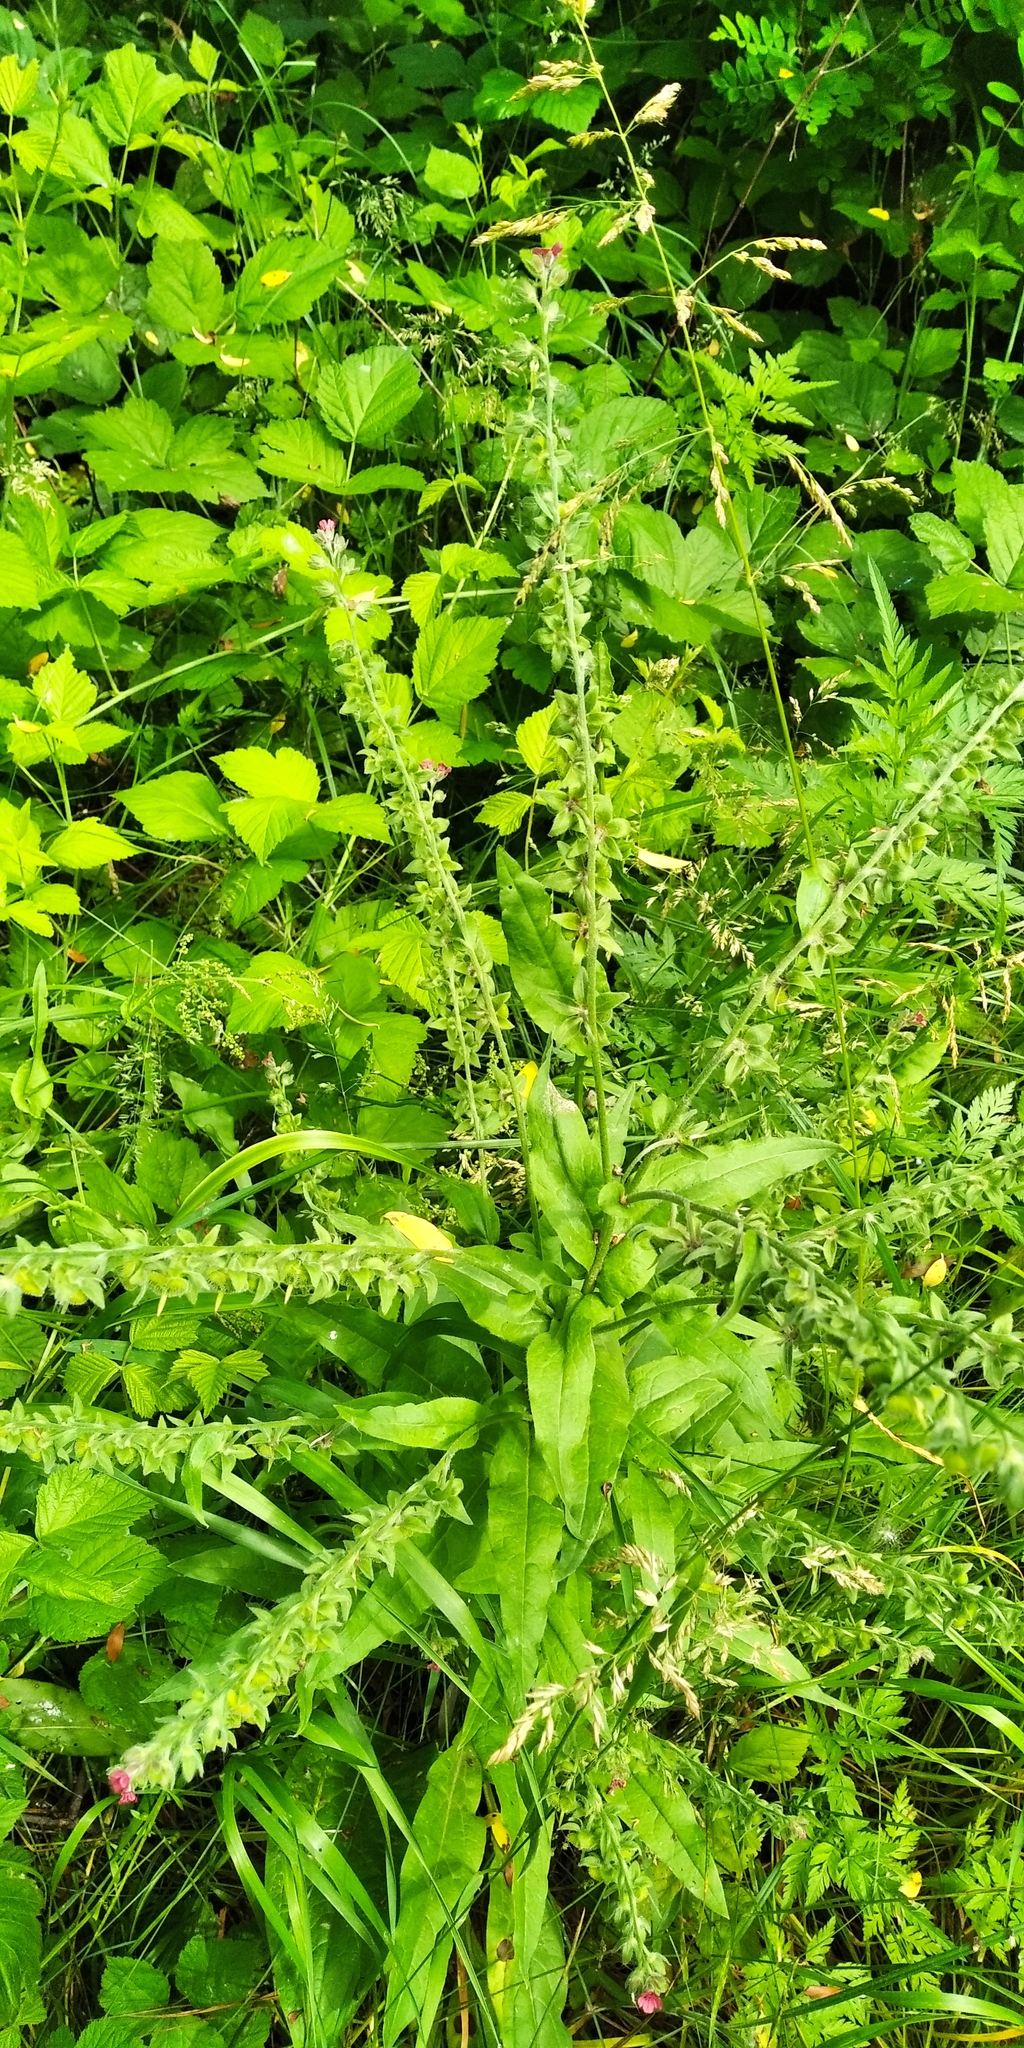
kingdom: Plantae
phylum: Tracheophyta
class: Magnoliopsida
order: Boraginales
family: Boraginaceae
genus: Cynoglossum
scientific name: Cynoglossum officinale
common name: Hound's-tongue
